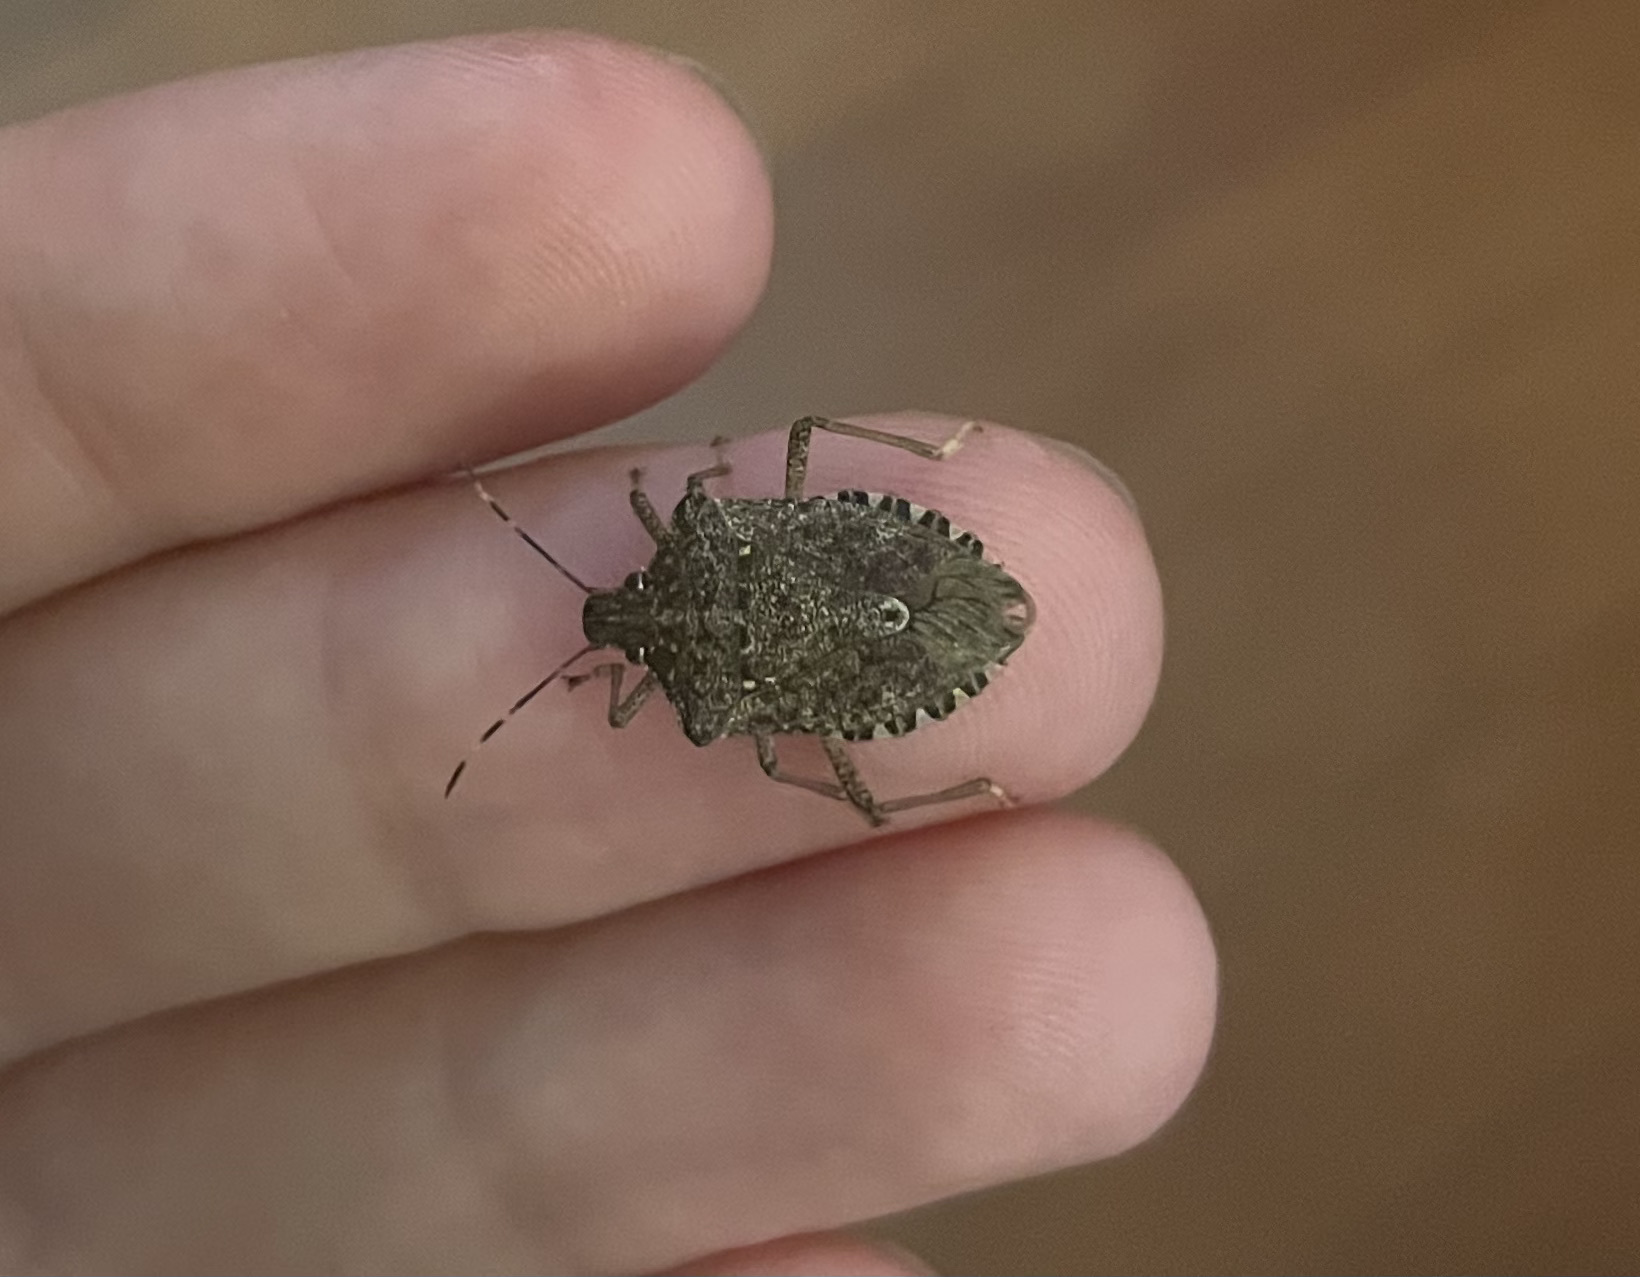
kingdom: Animalia
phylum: Arthropoda
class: Insecta
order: Hemiptera
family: Pentatomidae
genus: Halyomorpha
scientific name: Halyomorpha halys
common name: Brown marmorated stink bug
